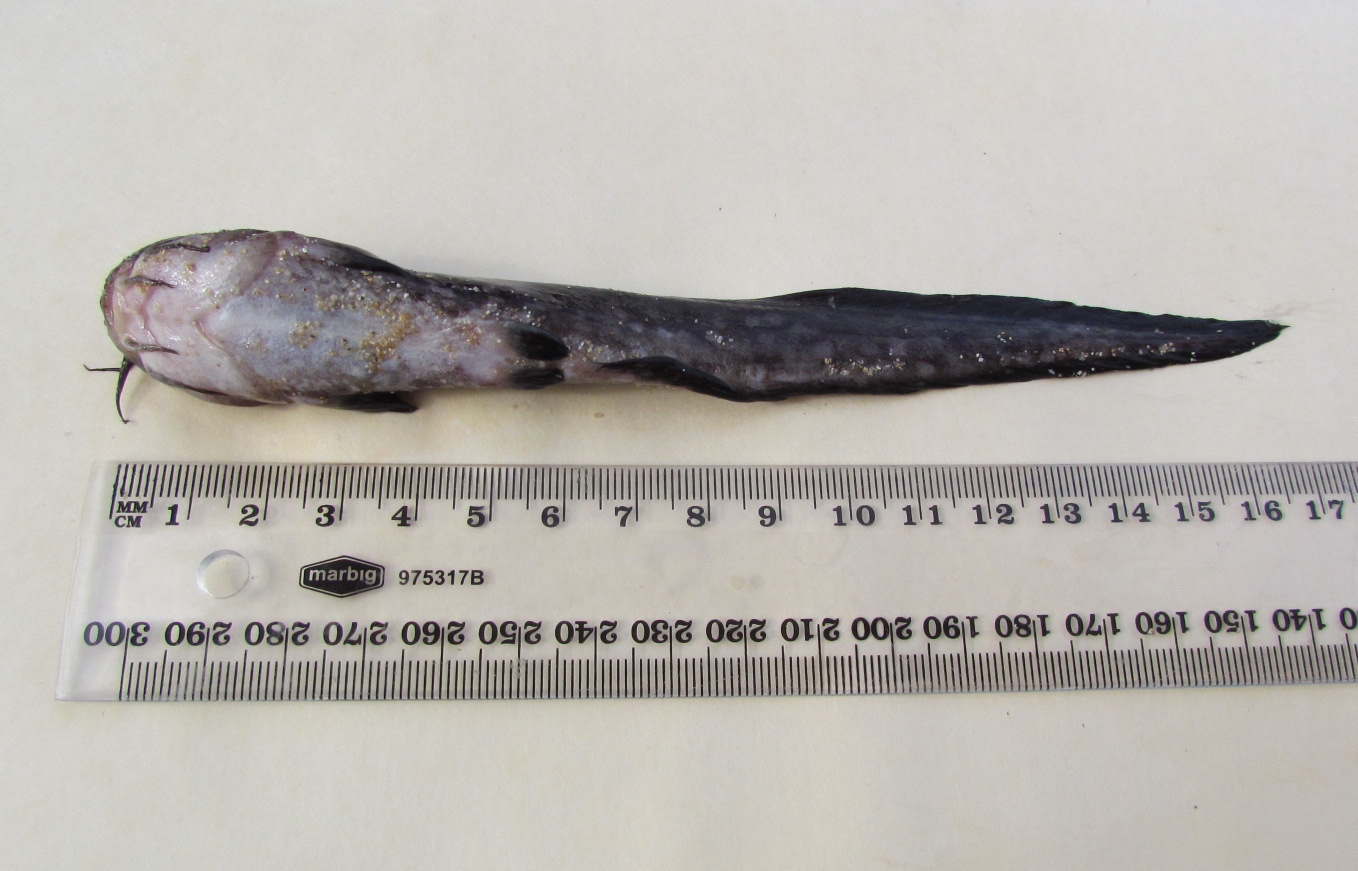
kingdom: Animalia
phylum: Chordata
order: Siluriformes
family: Plotosidae
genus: Cnidoglanis
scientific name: Cnidoglanis macrocephalus
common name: Cobbler
